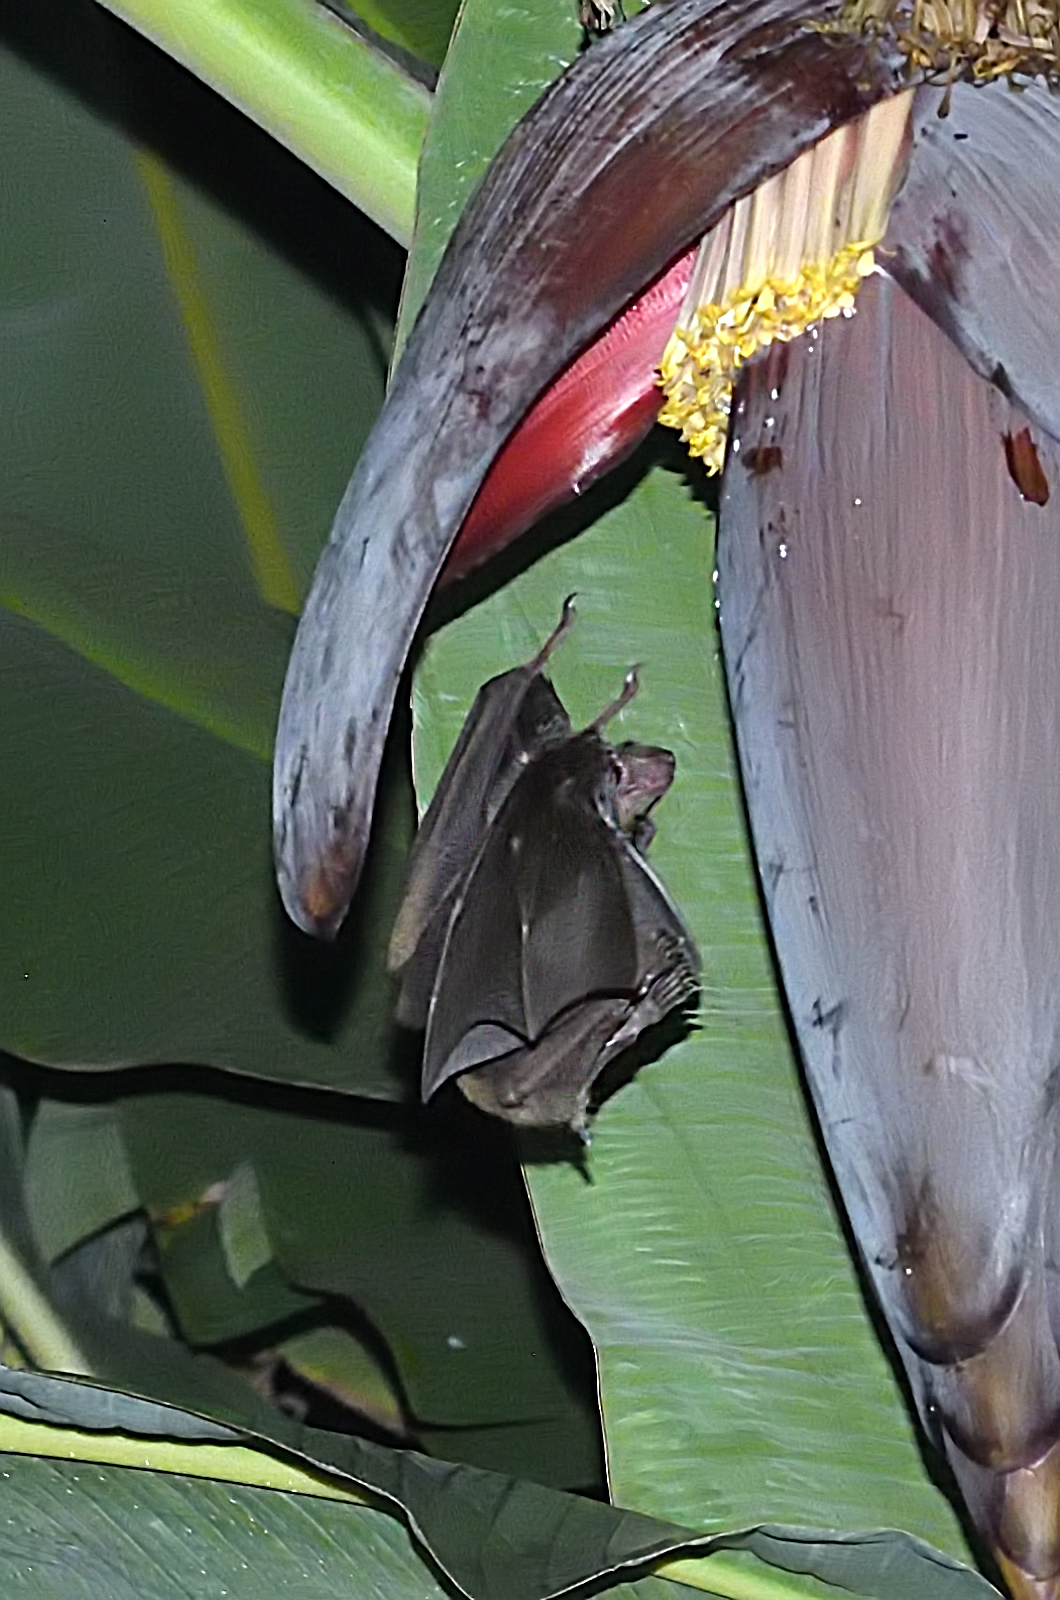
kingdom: Animalia
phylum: Chordata
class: Mammalia
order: Chiroptera
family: Pteropodidae
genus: Cynopterus
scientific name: Cynopterus sphinx
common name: Greater short-nosed fruit bat
